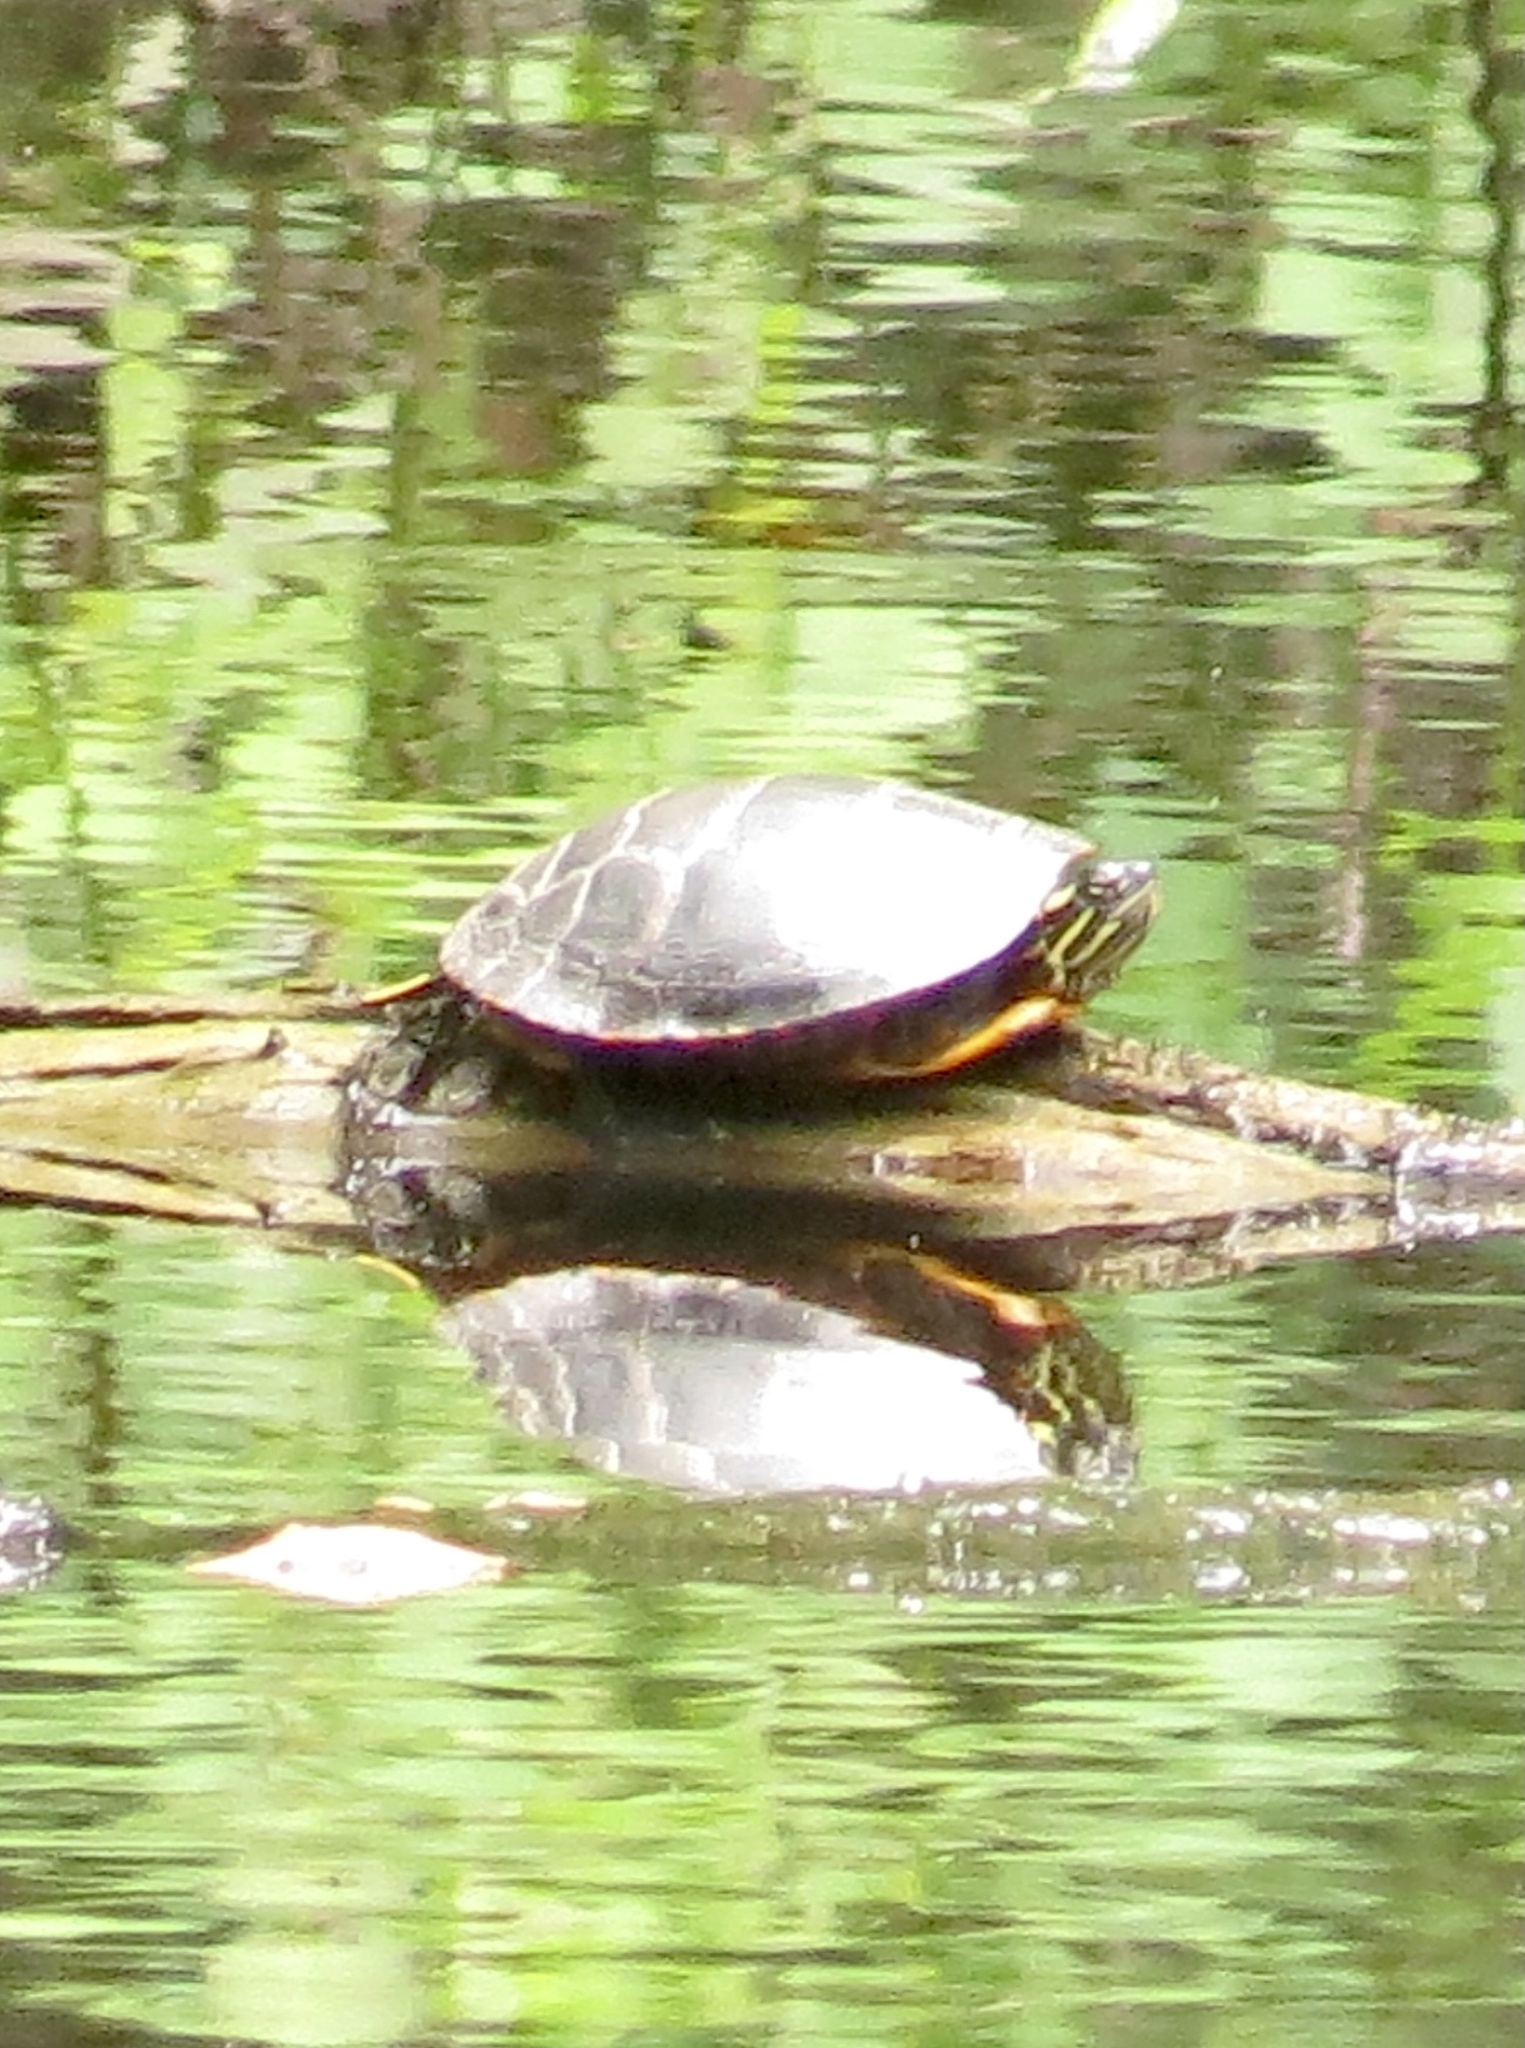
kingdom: Animalia
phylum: Chordata
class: Testudines
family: Emydidae
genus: Chrysemys
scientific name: Chrysemys picta
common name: Painted turtle
